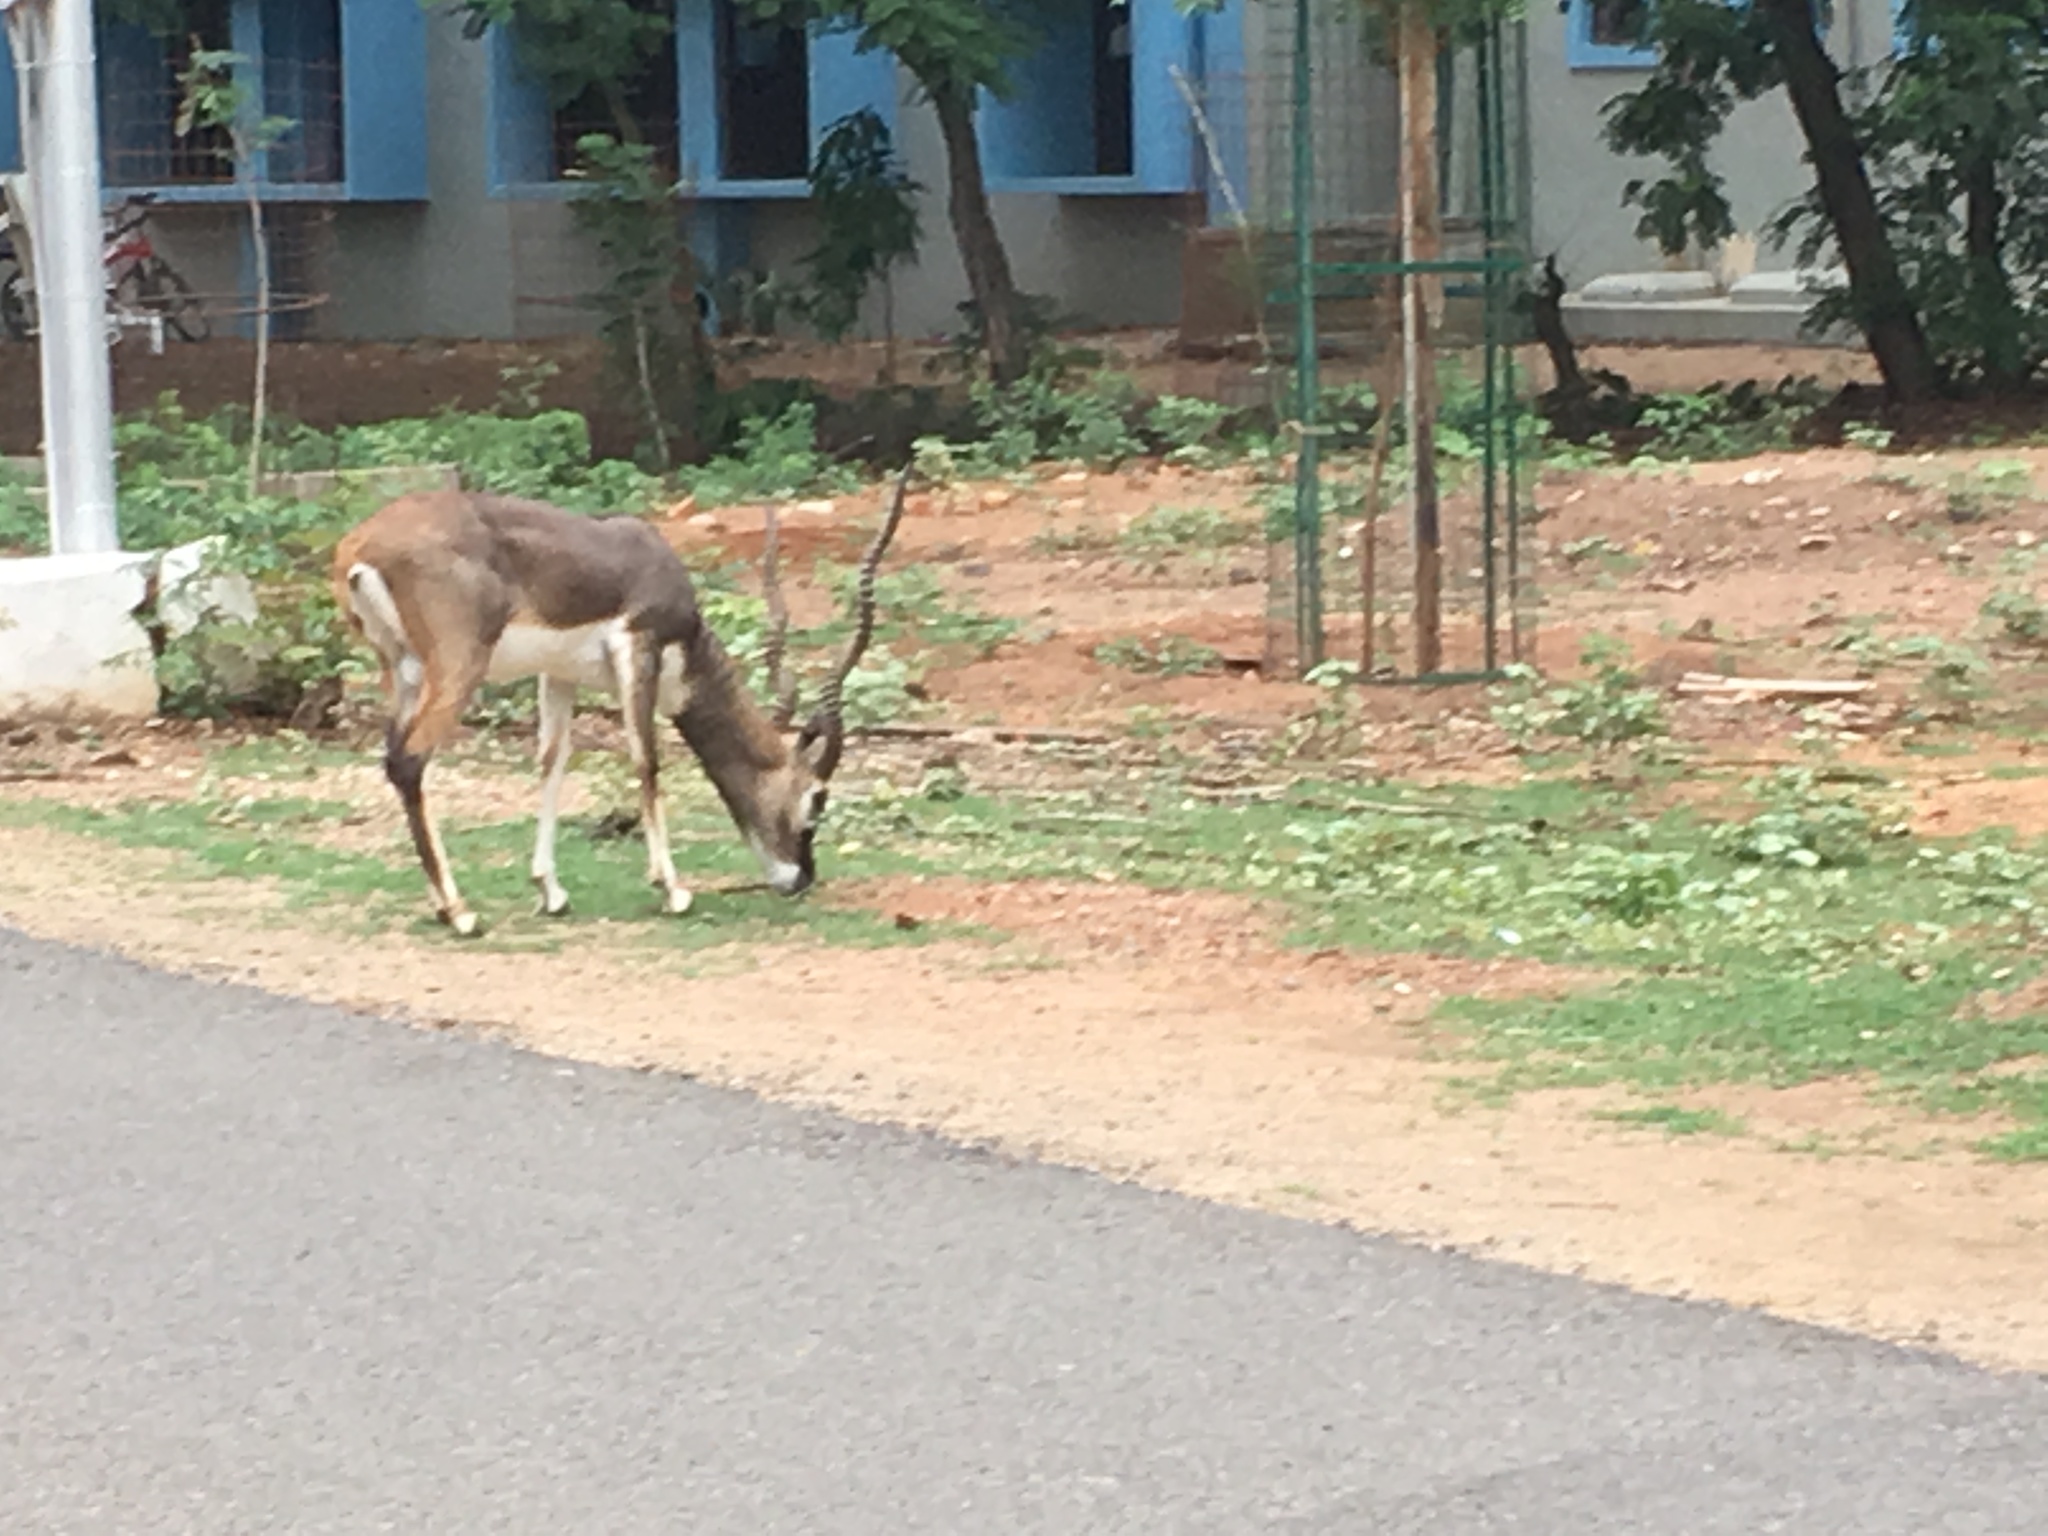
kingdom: Animalia
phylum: Chordata
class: Mammalia
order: Artiodactyla
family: Bovidae
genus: Antilope
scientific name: Antilope cervicapra
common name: Blackbuck
